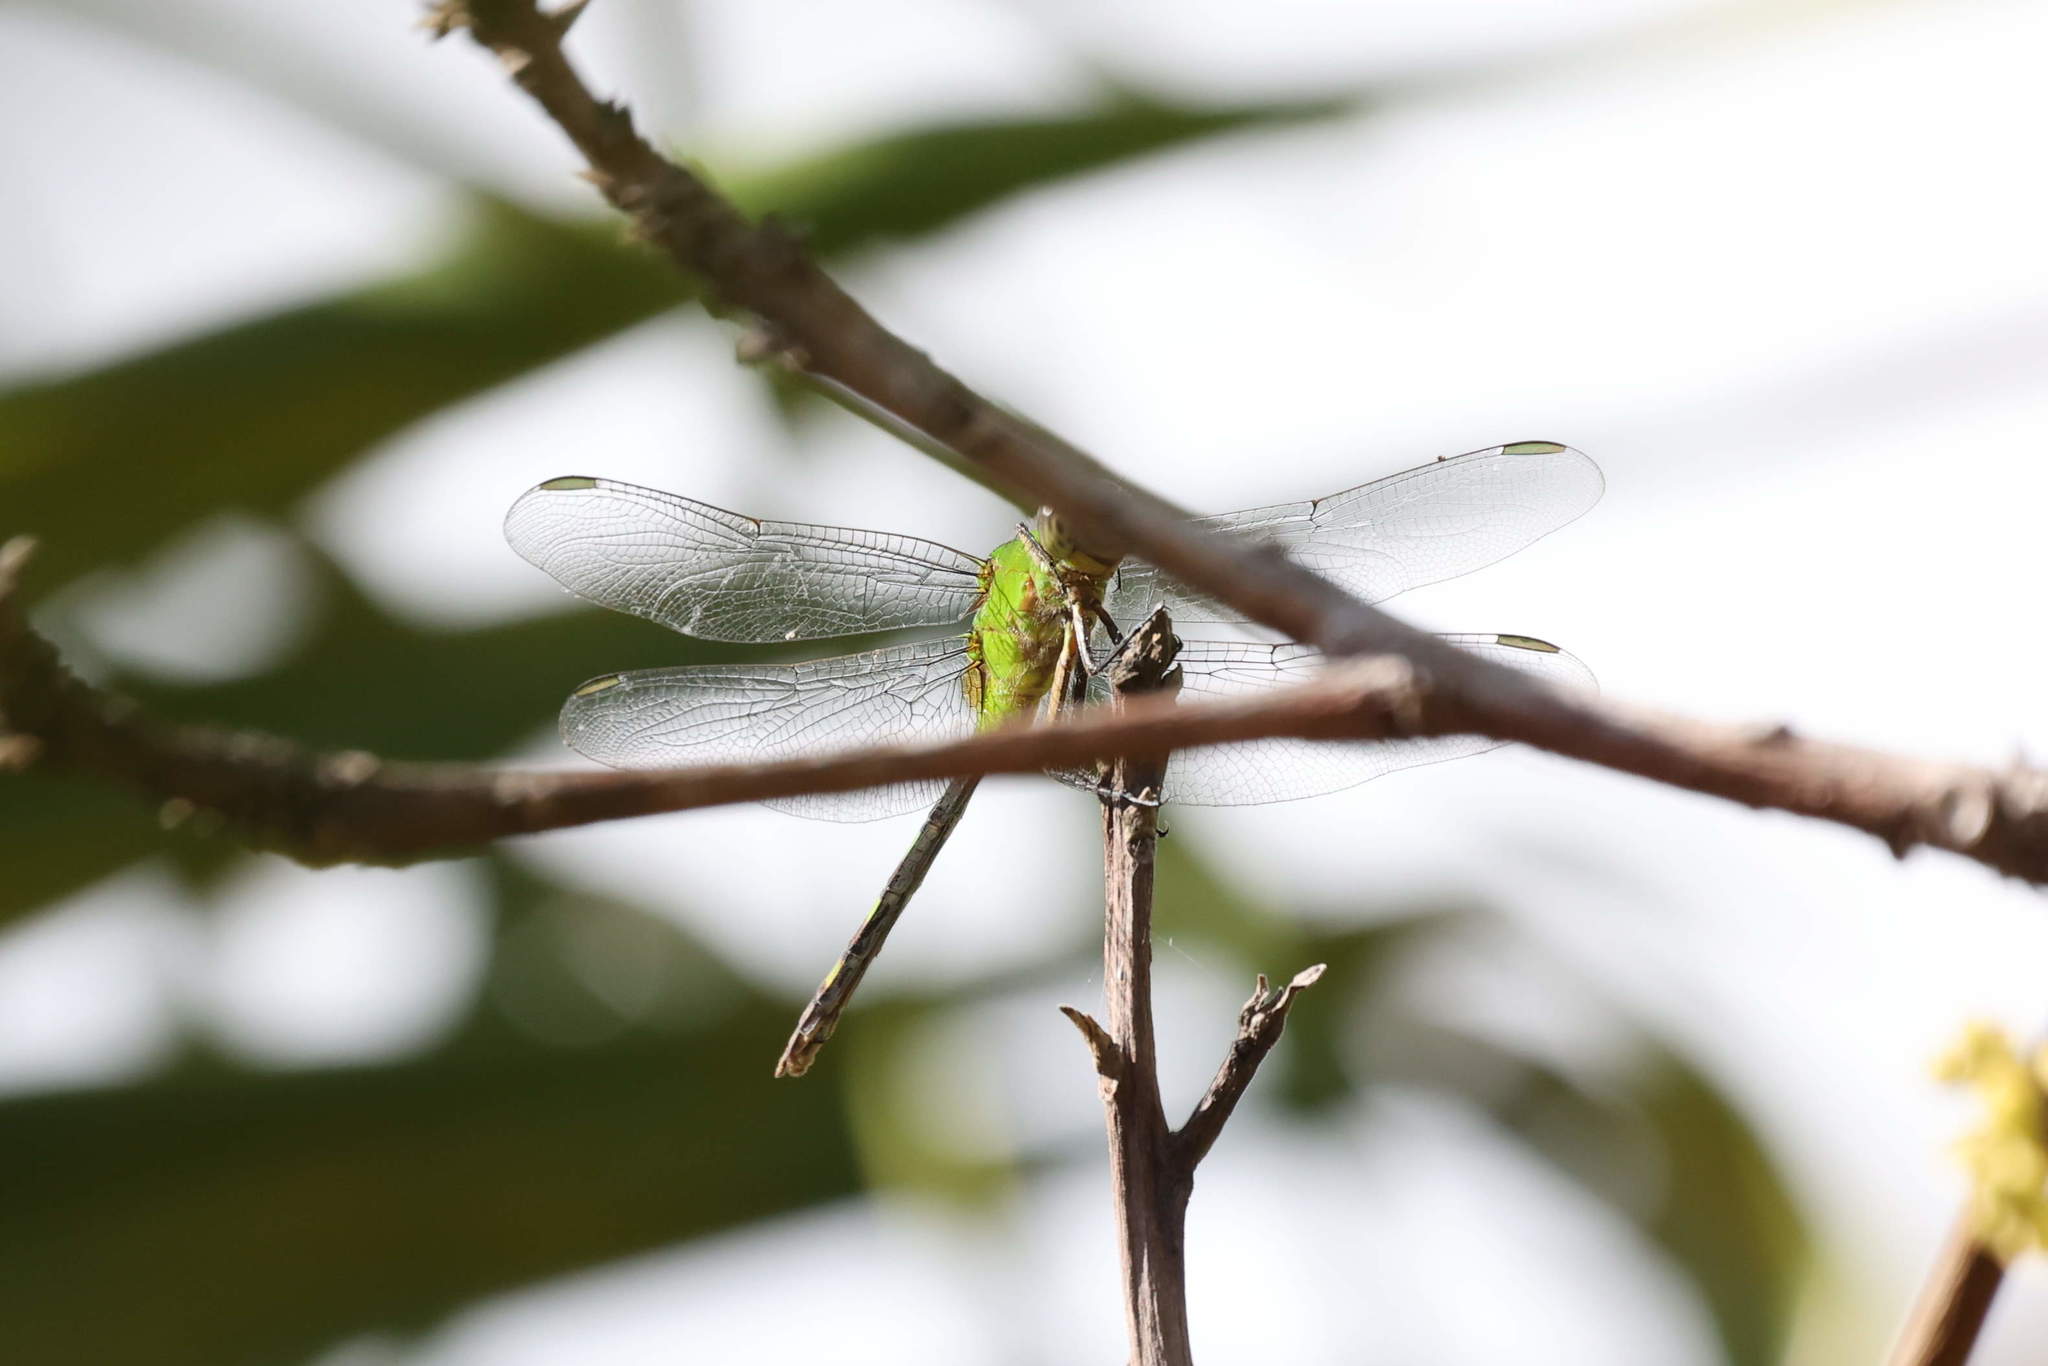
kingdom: Animalia
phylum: Arthropoda
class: Insecta
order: Odonata
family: Libellulidae
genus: Erythemis
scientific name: Erythemis vesiculosa
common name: Great pondhawk
